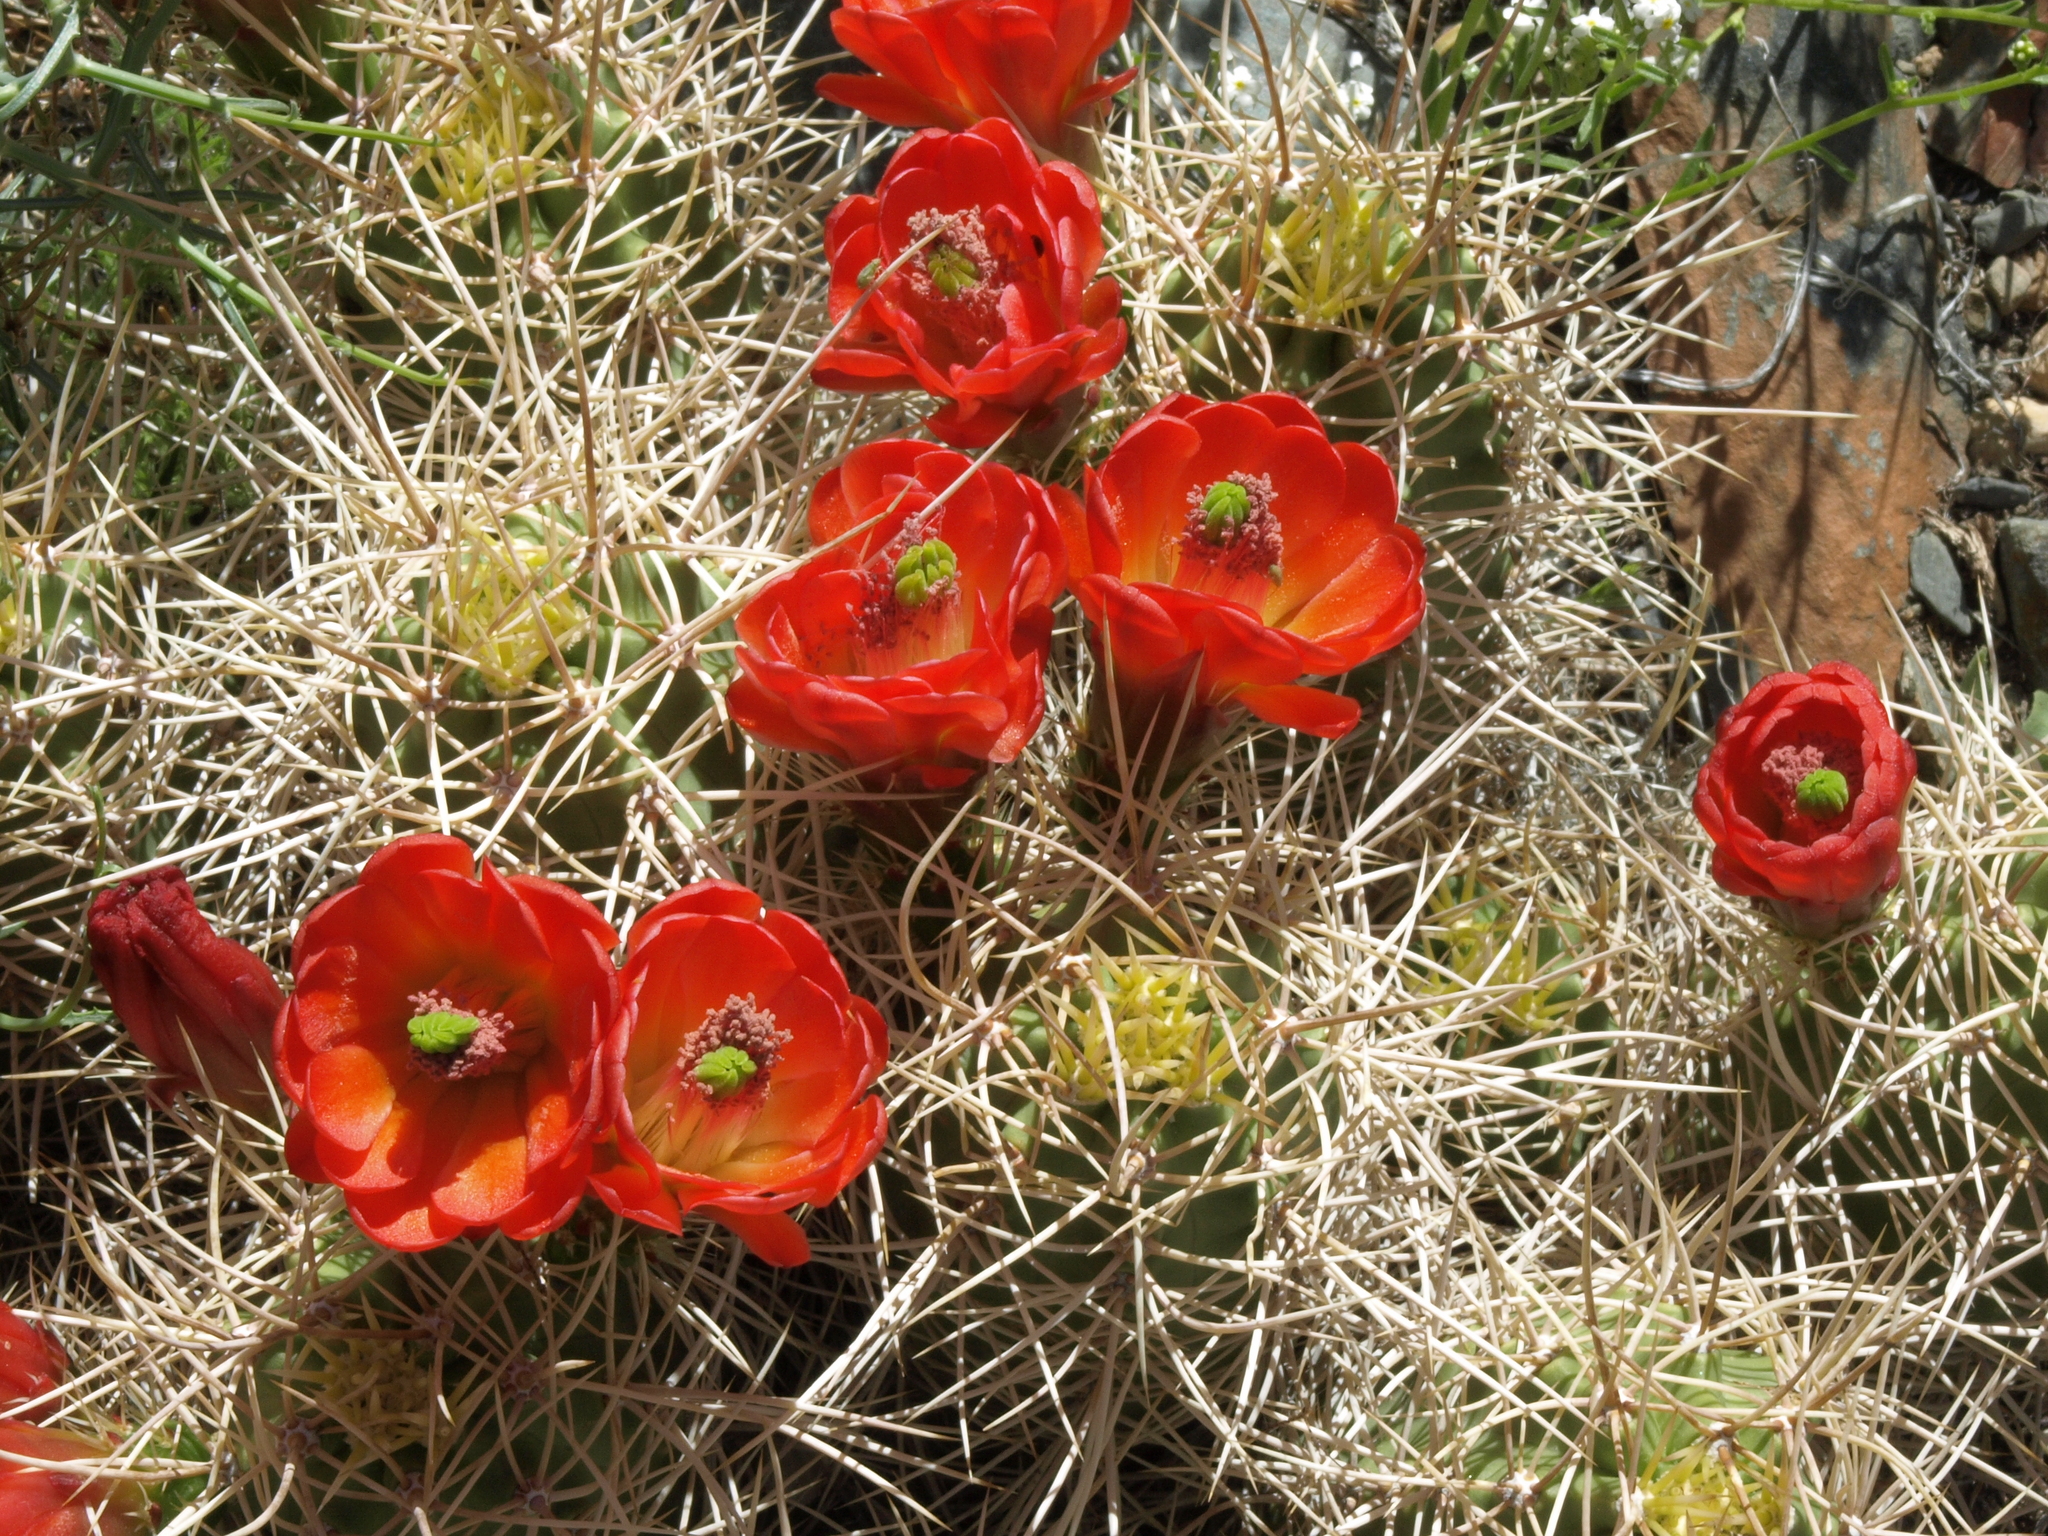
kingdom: Plantae
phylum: Tracheophyta
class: Magnoliopsida
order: Caryophyllales
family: Cactaceae
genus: Echinocereus
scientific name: Echinocereus triglochidiatus
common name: Claretcup hedgehog
